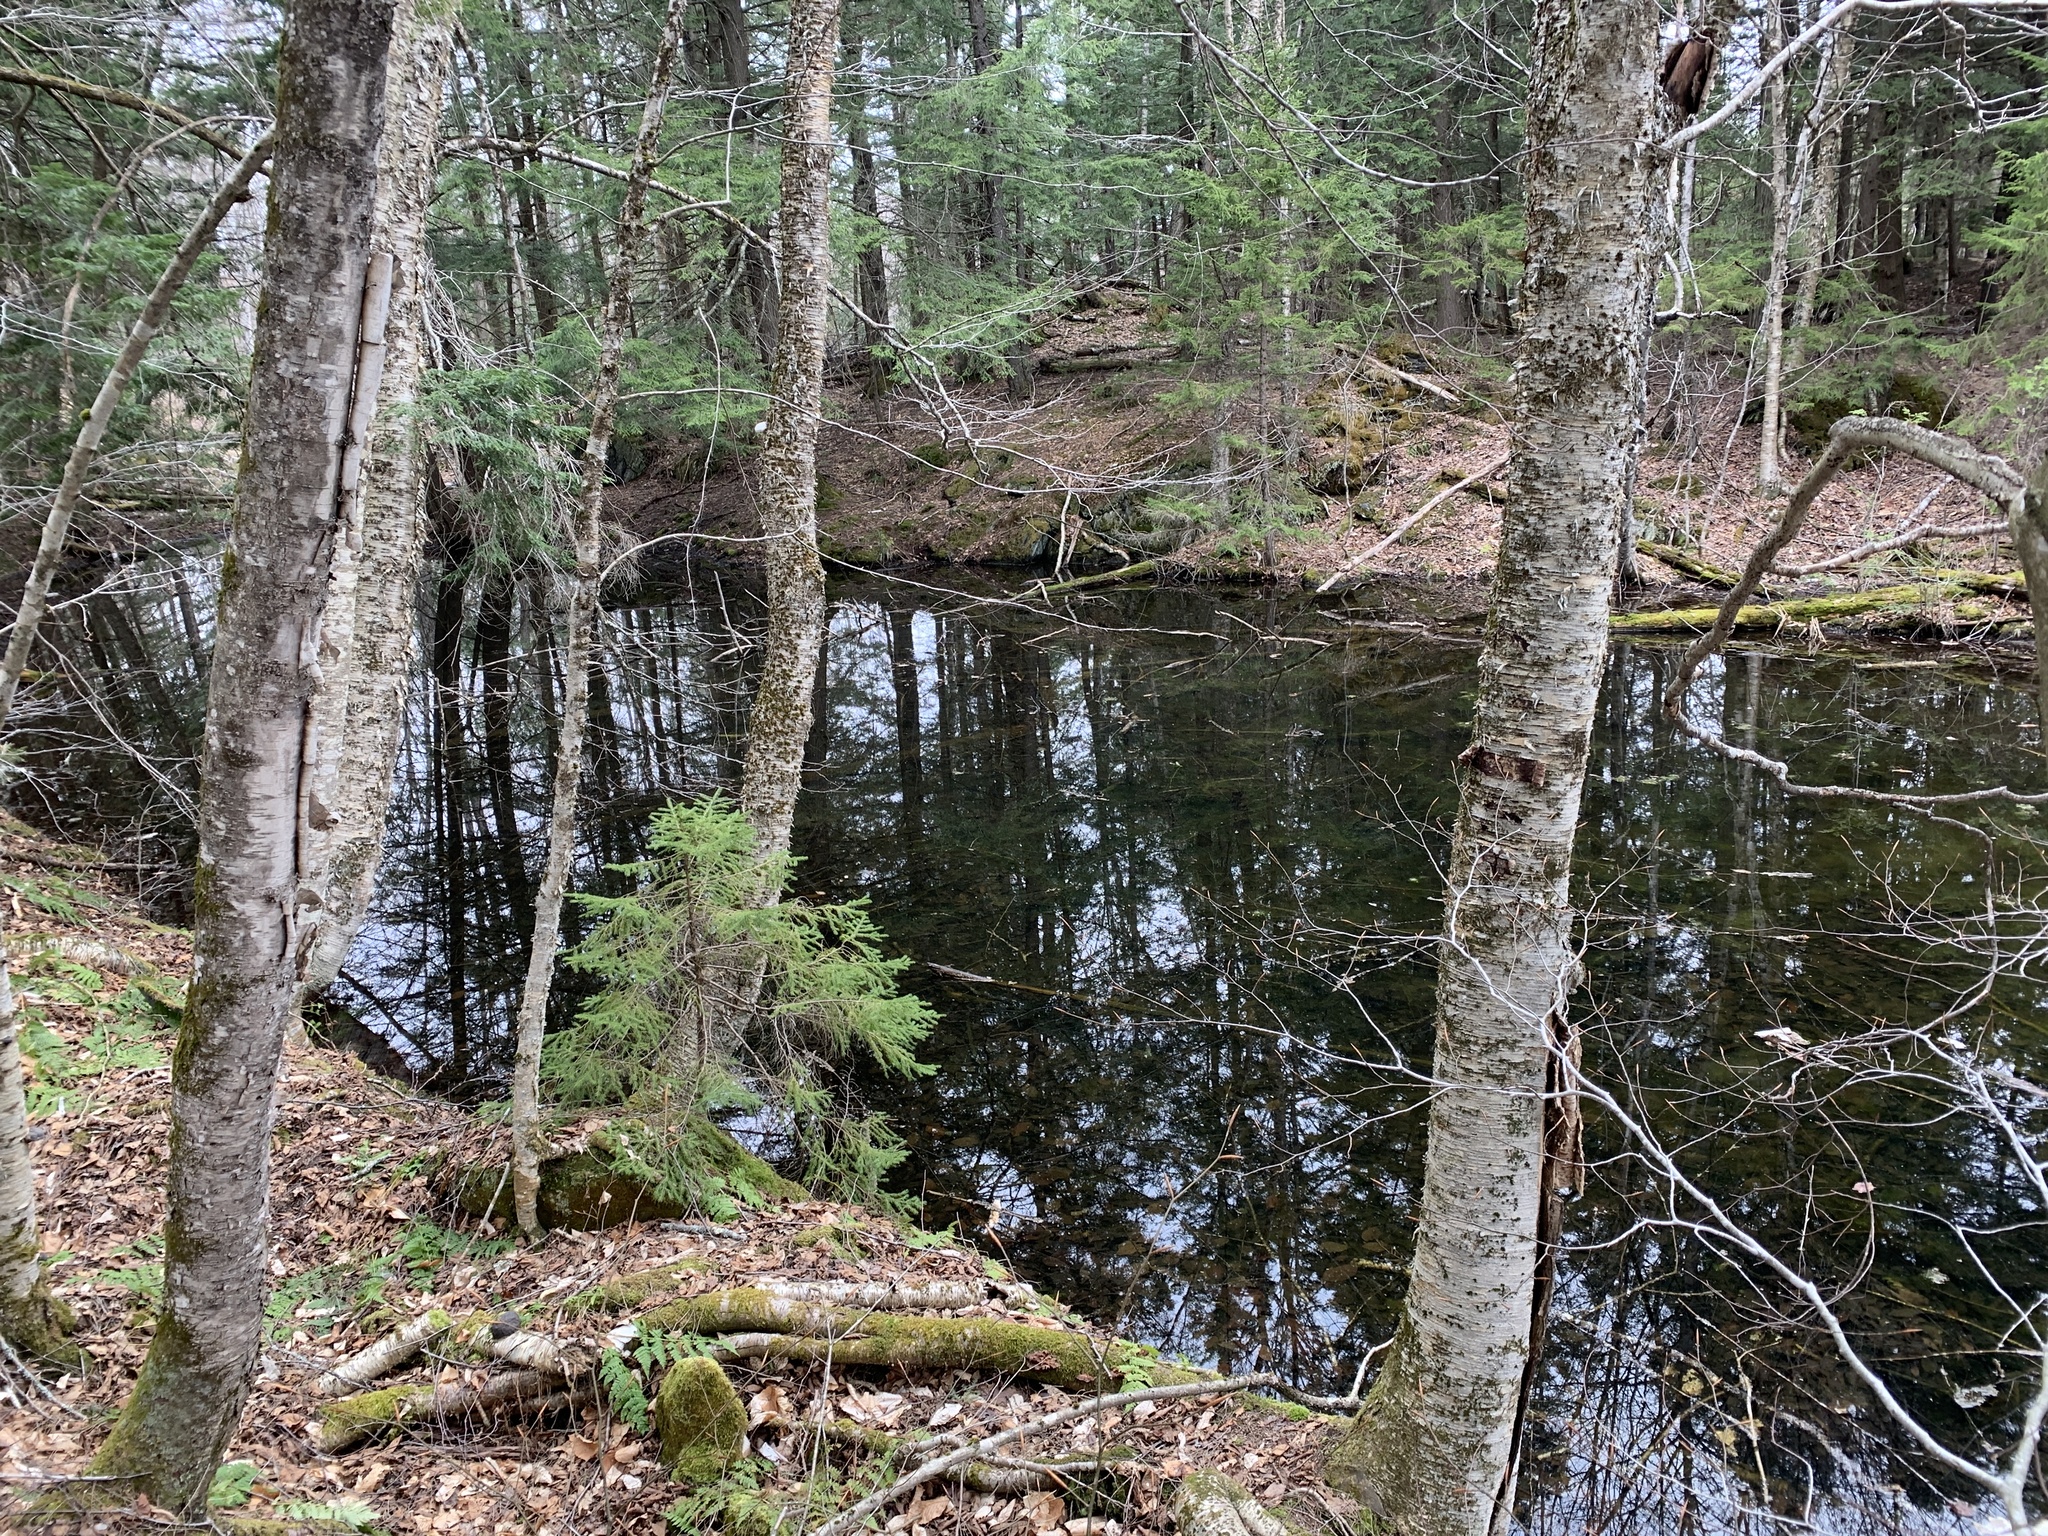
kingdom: Plantae
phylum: Tracheophyta
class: Magnoliopsida
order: Fagales
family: Betulaceae
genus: Betula
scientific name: Betula alleghaniensis
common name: Yellow birch
